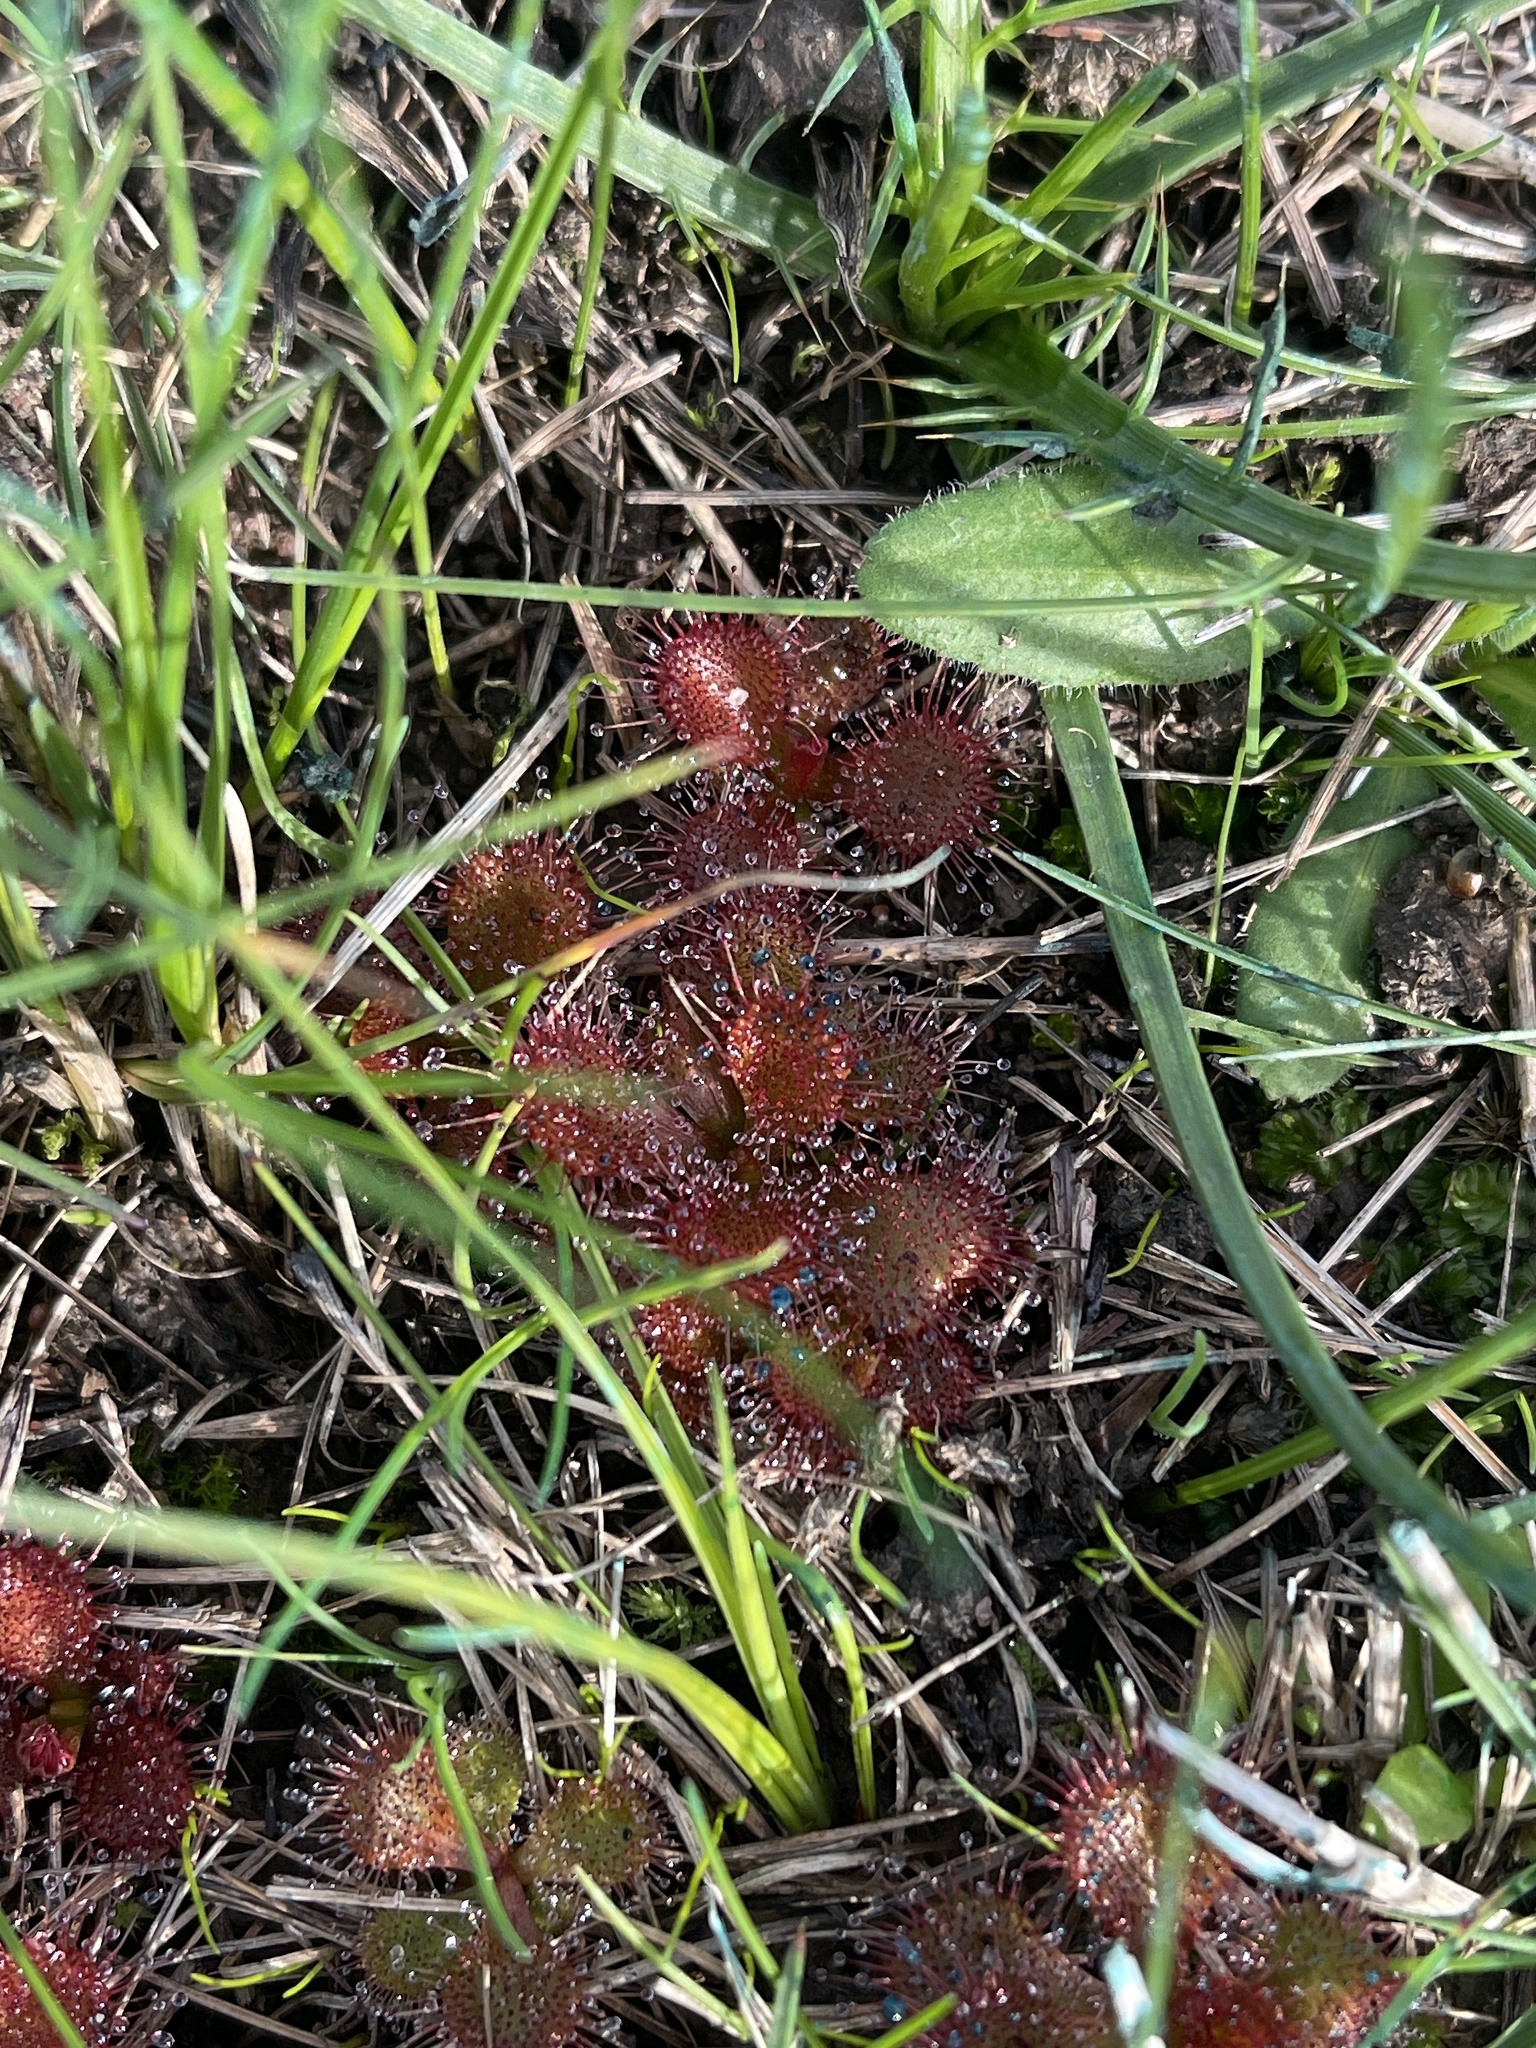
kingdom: Plantae
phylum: Tracheophyta
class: Magnoliopsida
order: Caryophyllales
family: Droseraceae
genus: Drosera
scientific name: Drosera aberrans
